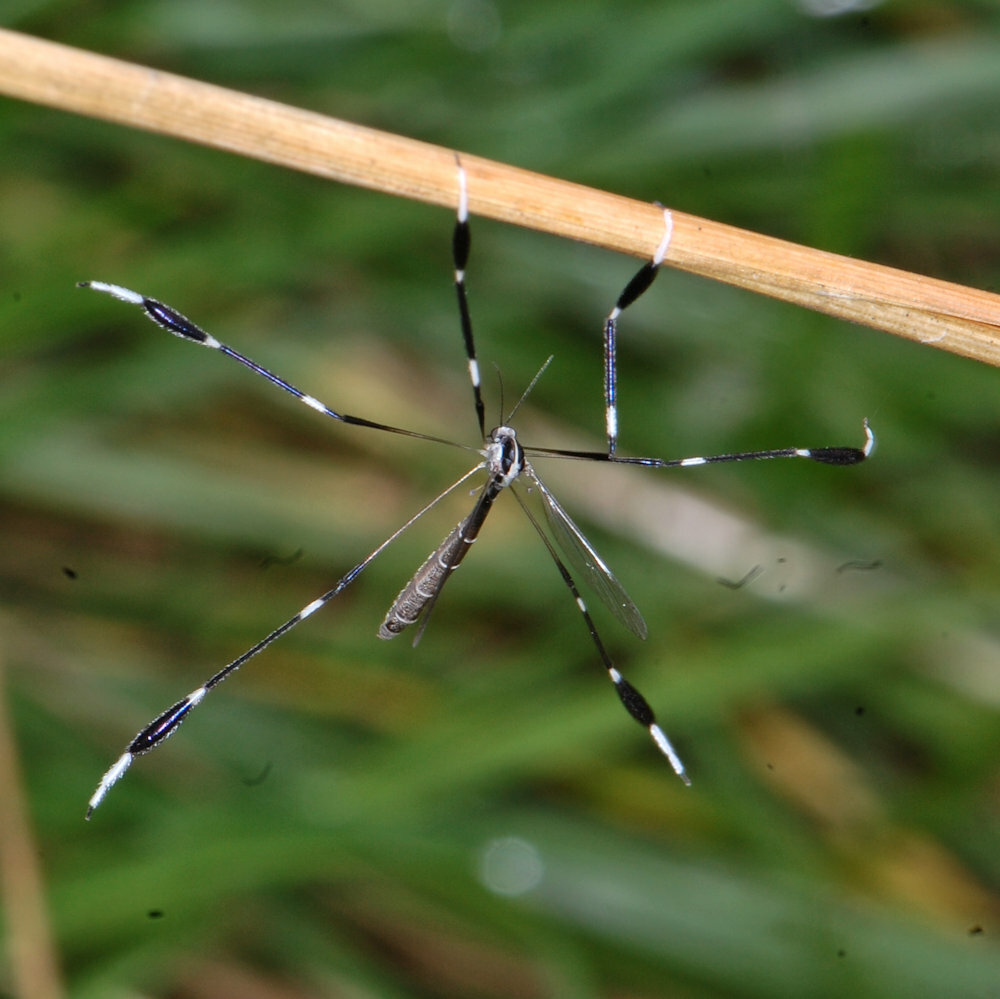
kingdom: Animalia
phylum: Arthropoda
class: Insecta
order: Diptera
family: Ptychopteridae
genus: Bittacomorpha
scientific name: Bittacomorpha clavipes
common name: Eastern phantom crane fly
